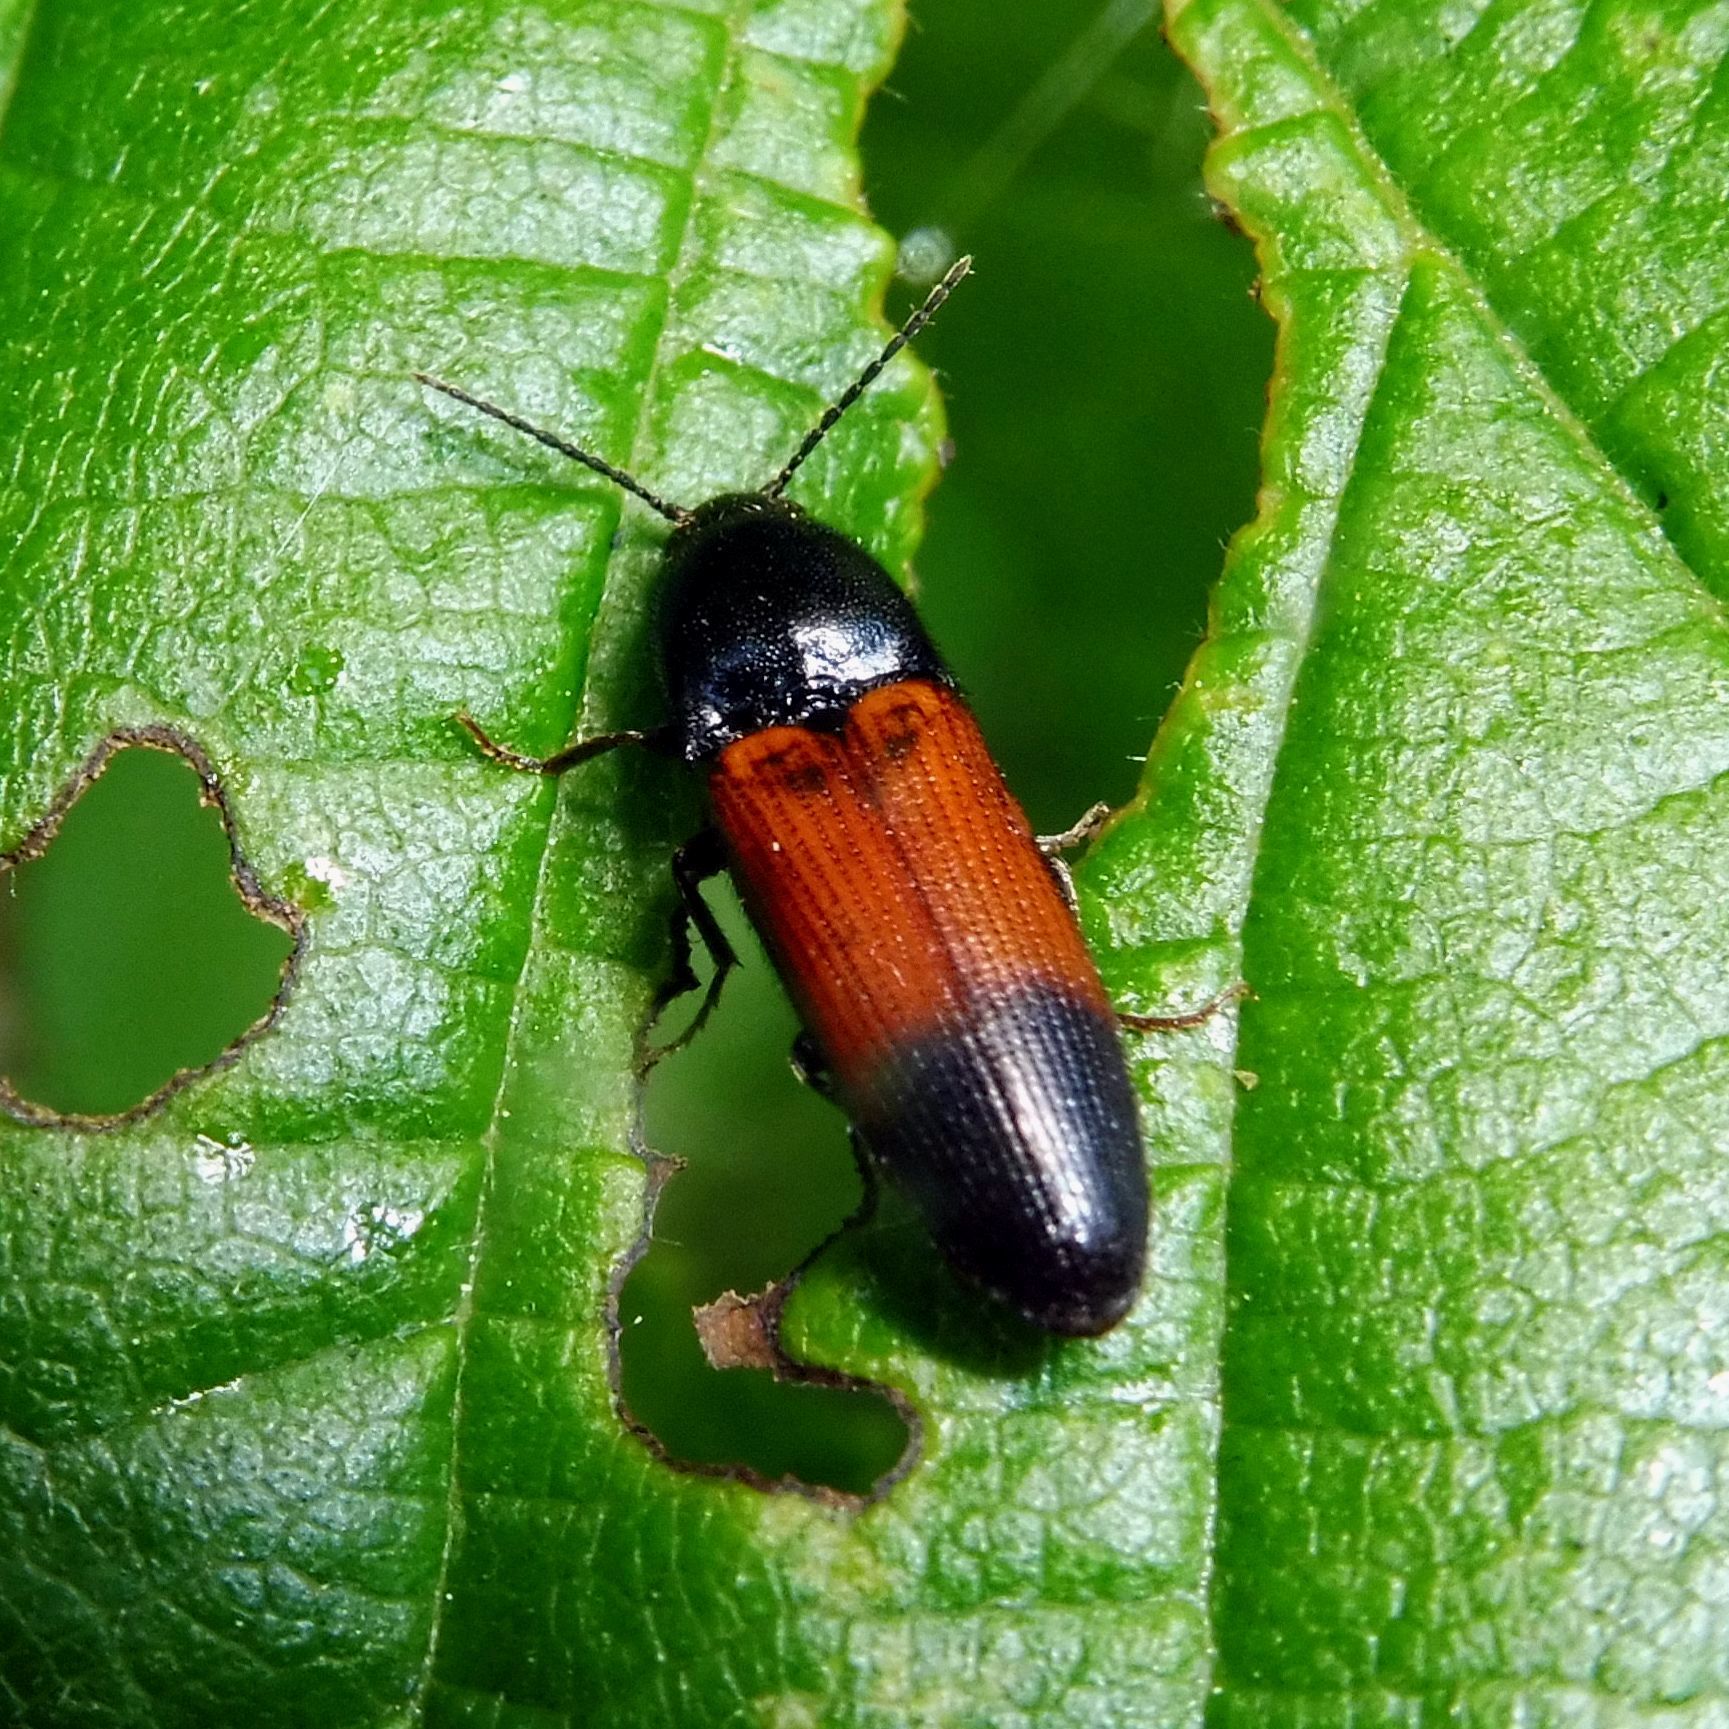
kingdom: Animalia
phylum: Arthropoda
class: Insecta
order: Coleoptera
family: Elateridae
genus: Ampedus
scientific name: Ampedus balteatus
